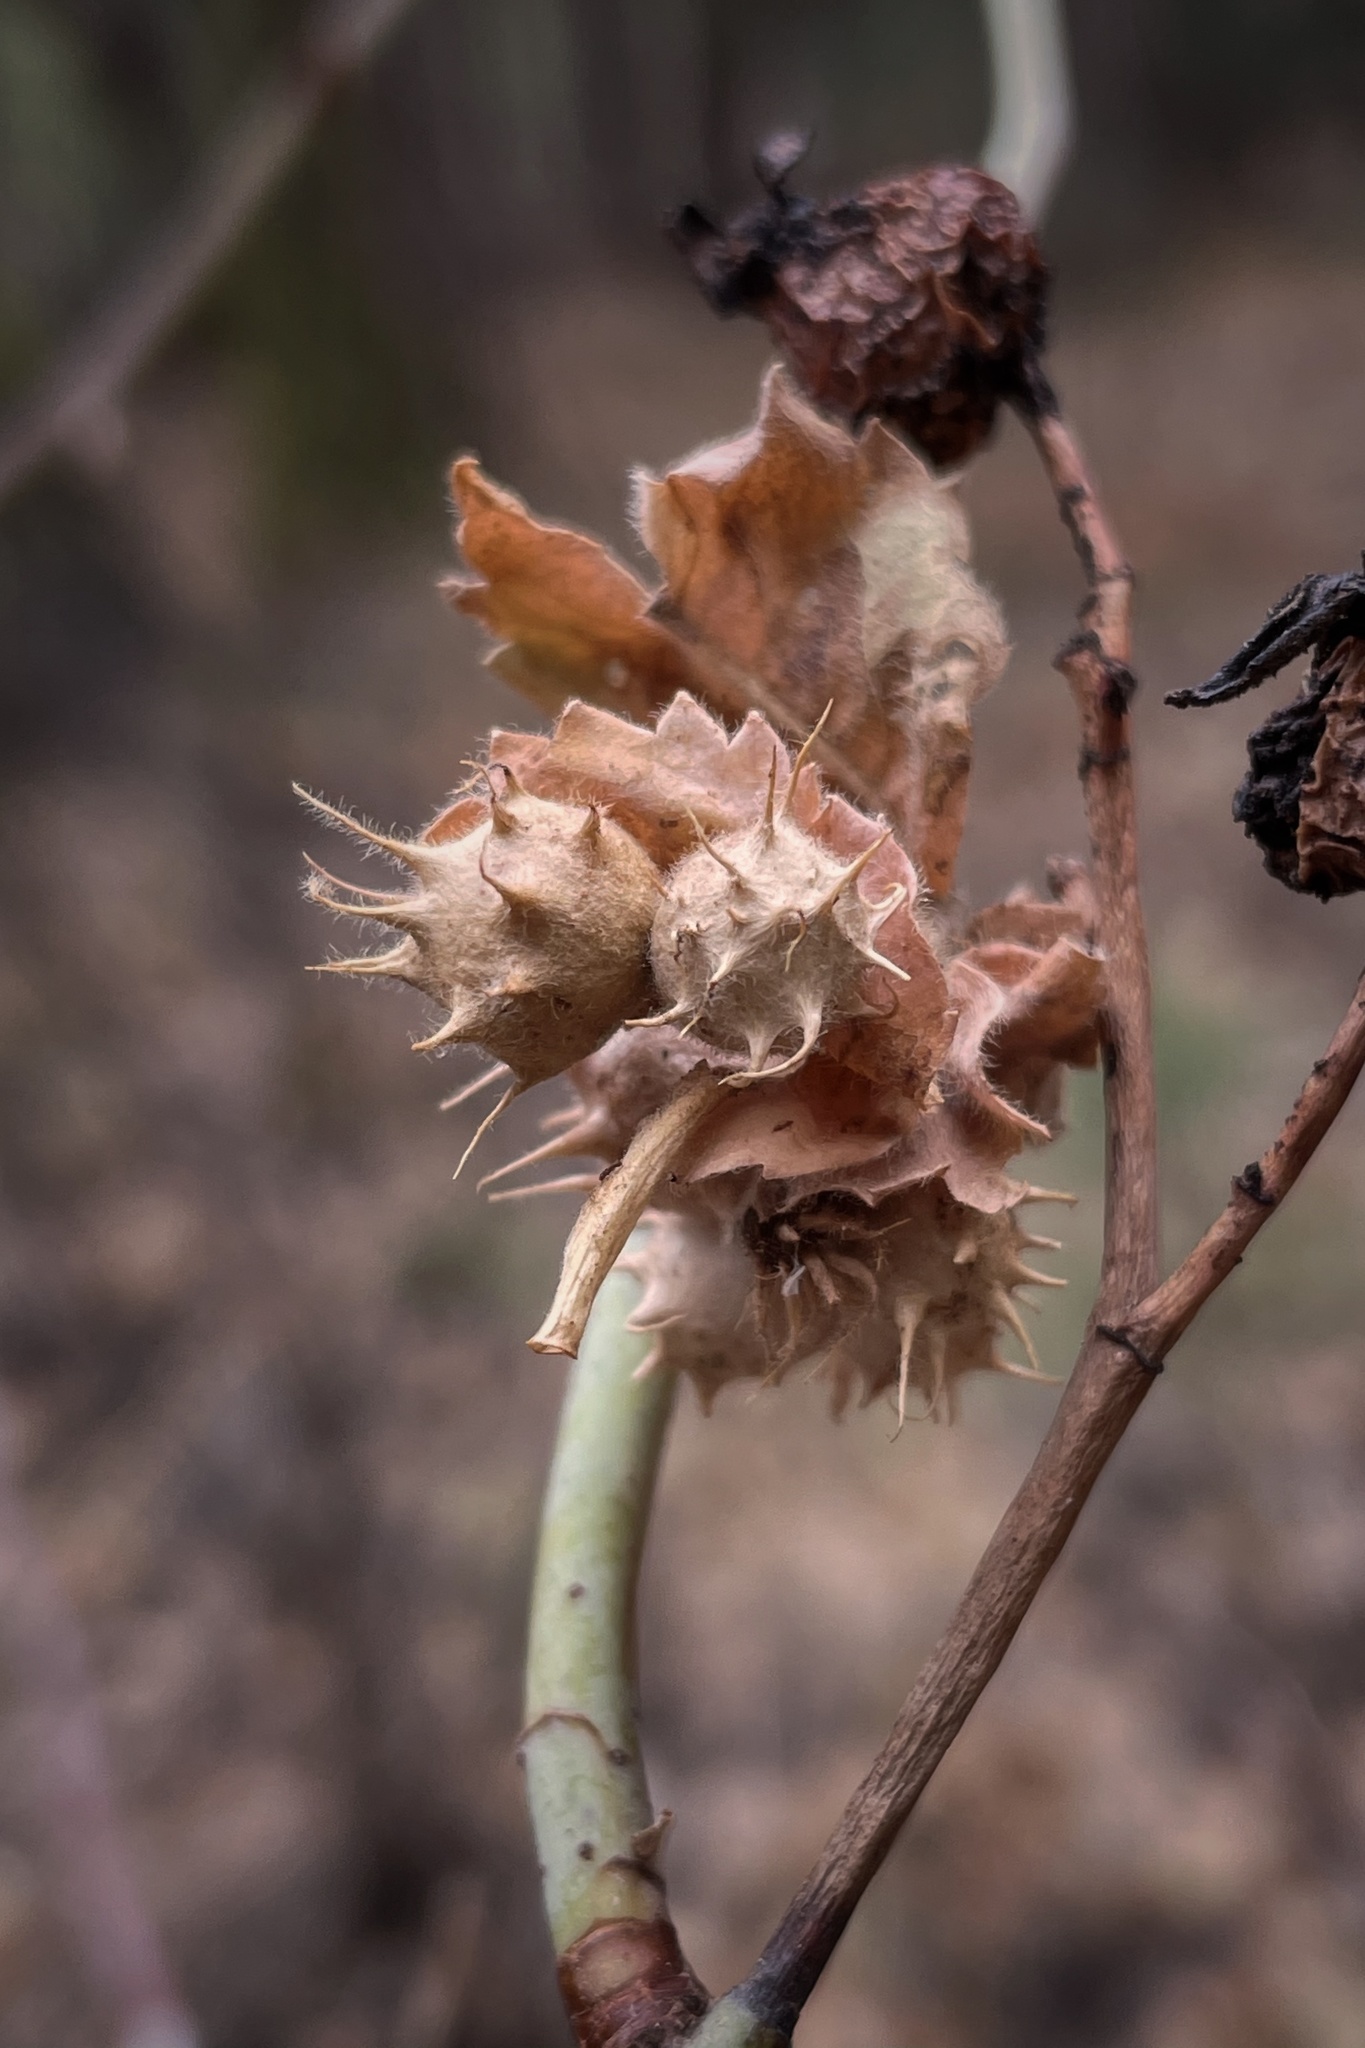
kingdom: Animalia
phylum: Arthropoda
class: Insecta
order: Hymenoptera
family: Cynipidae
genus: Diplolepis
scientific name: Diplolepis polita
